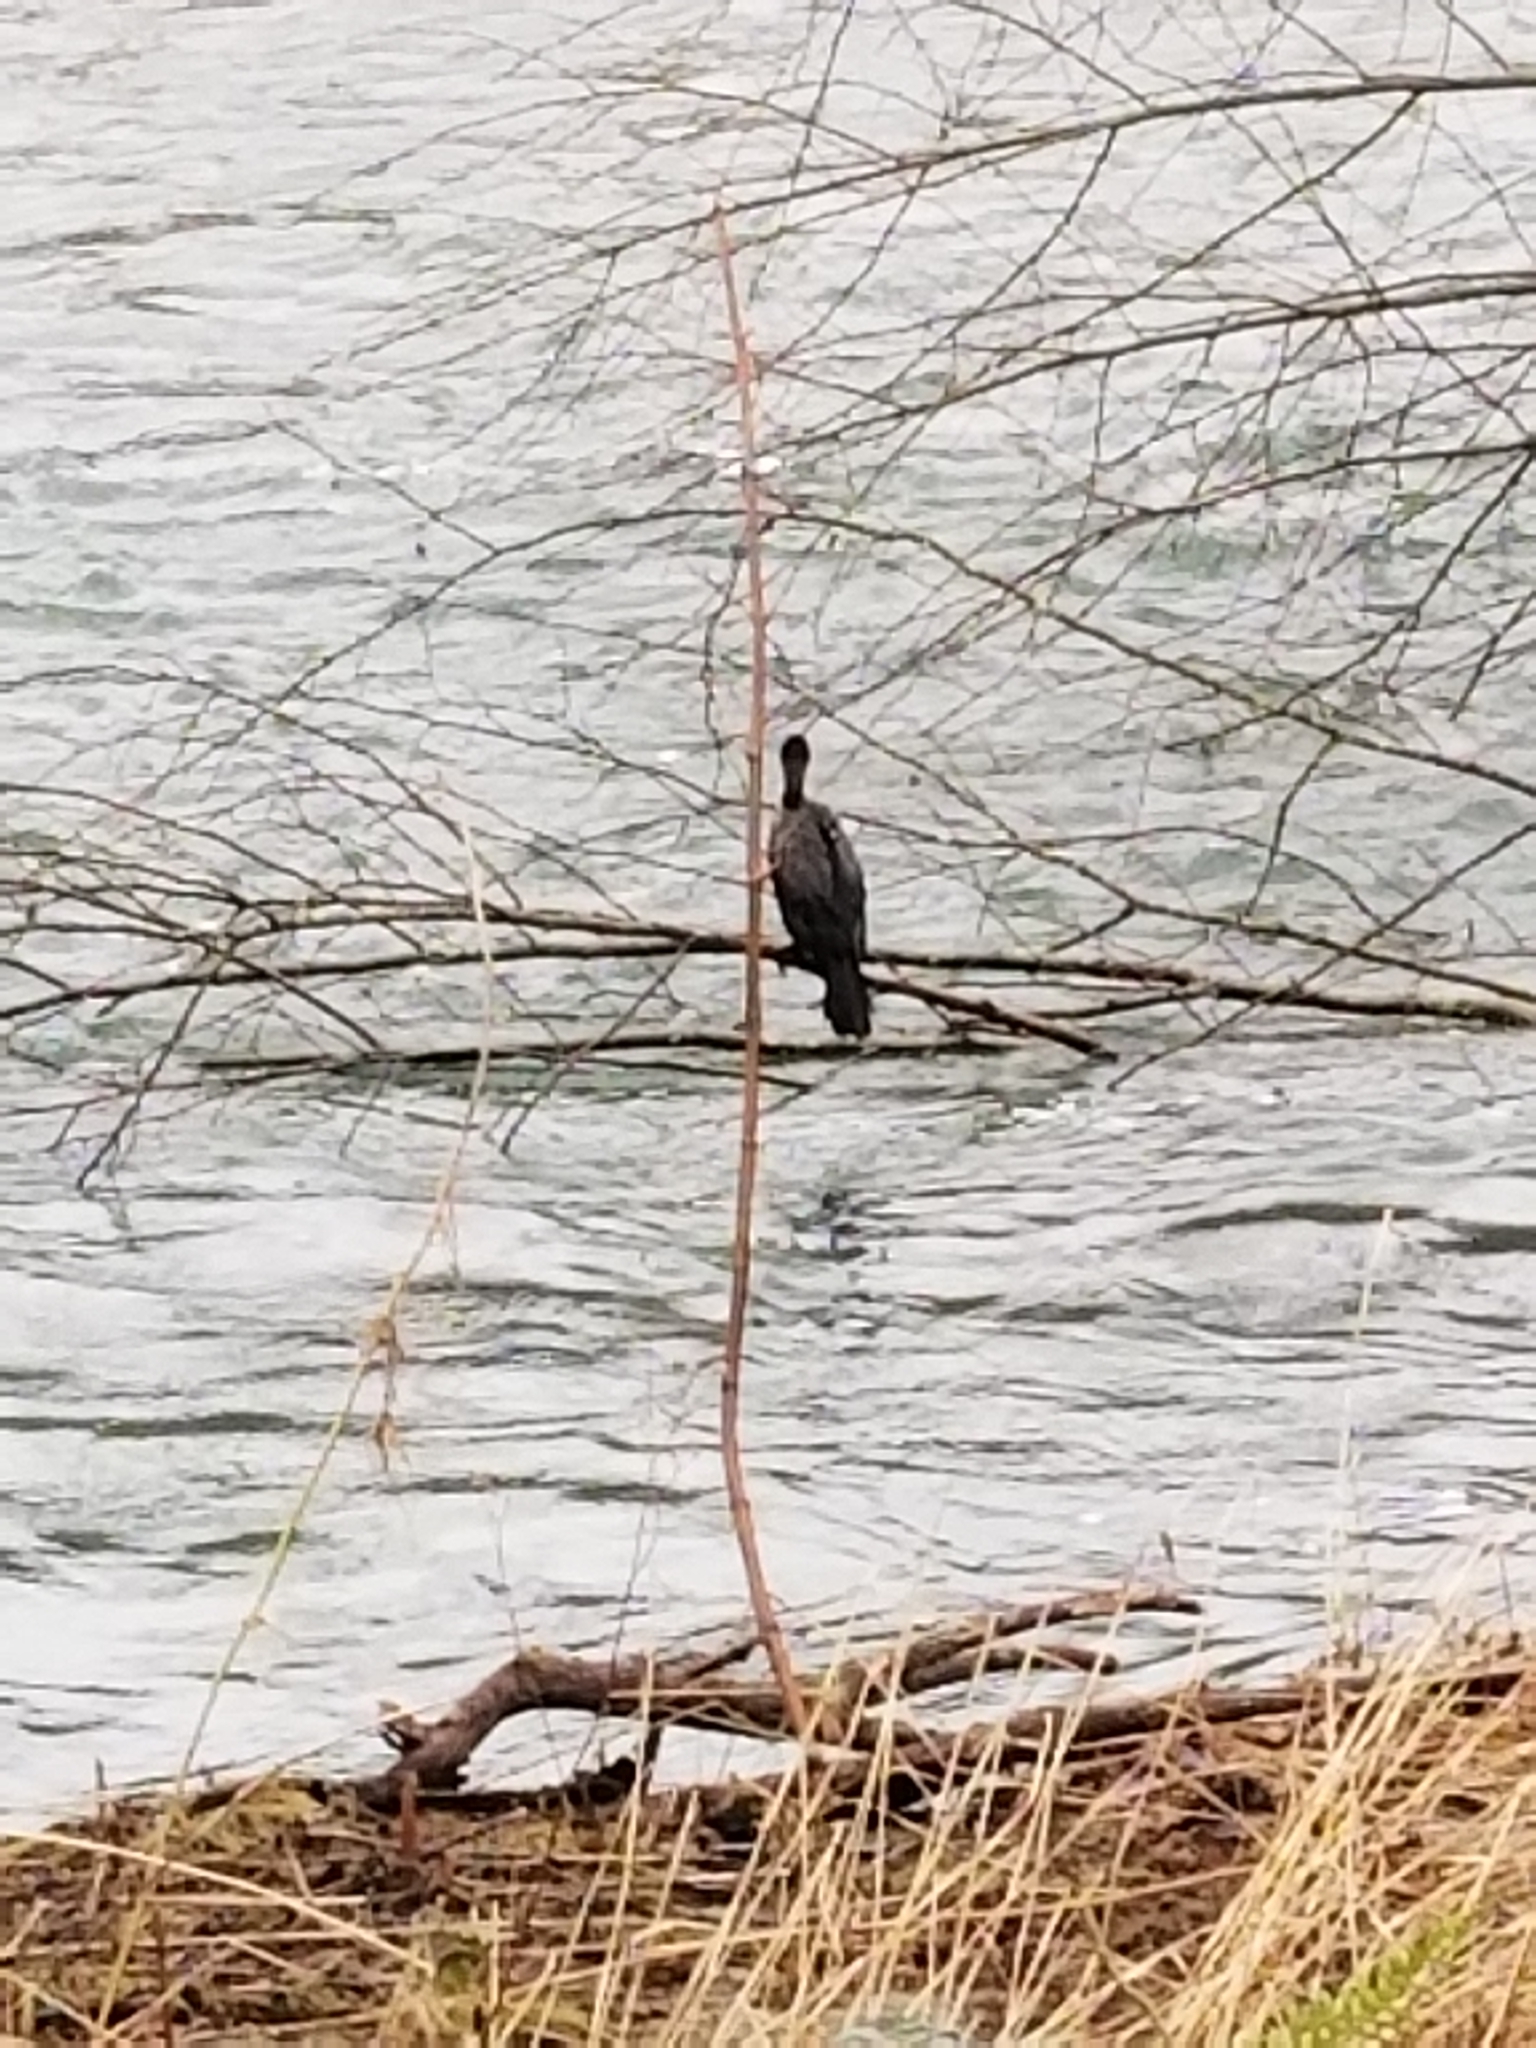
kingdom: Animalia
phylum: Chordata
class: Aves
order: Suliformes
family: Phalacrocoracidae
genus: Phalacrocorax
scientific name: Phalacrocorax auritus
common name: Double-crested cormorant
